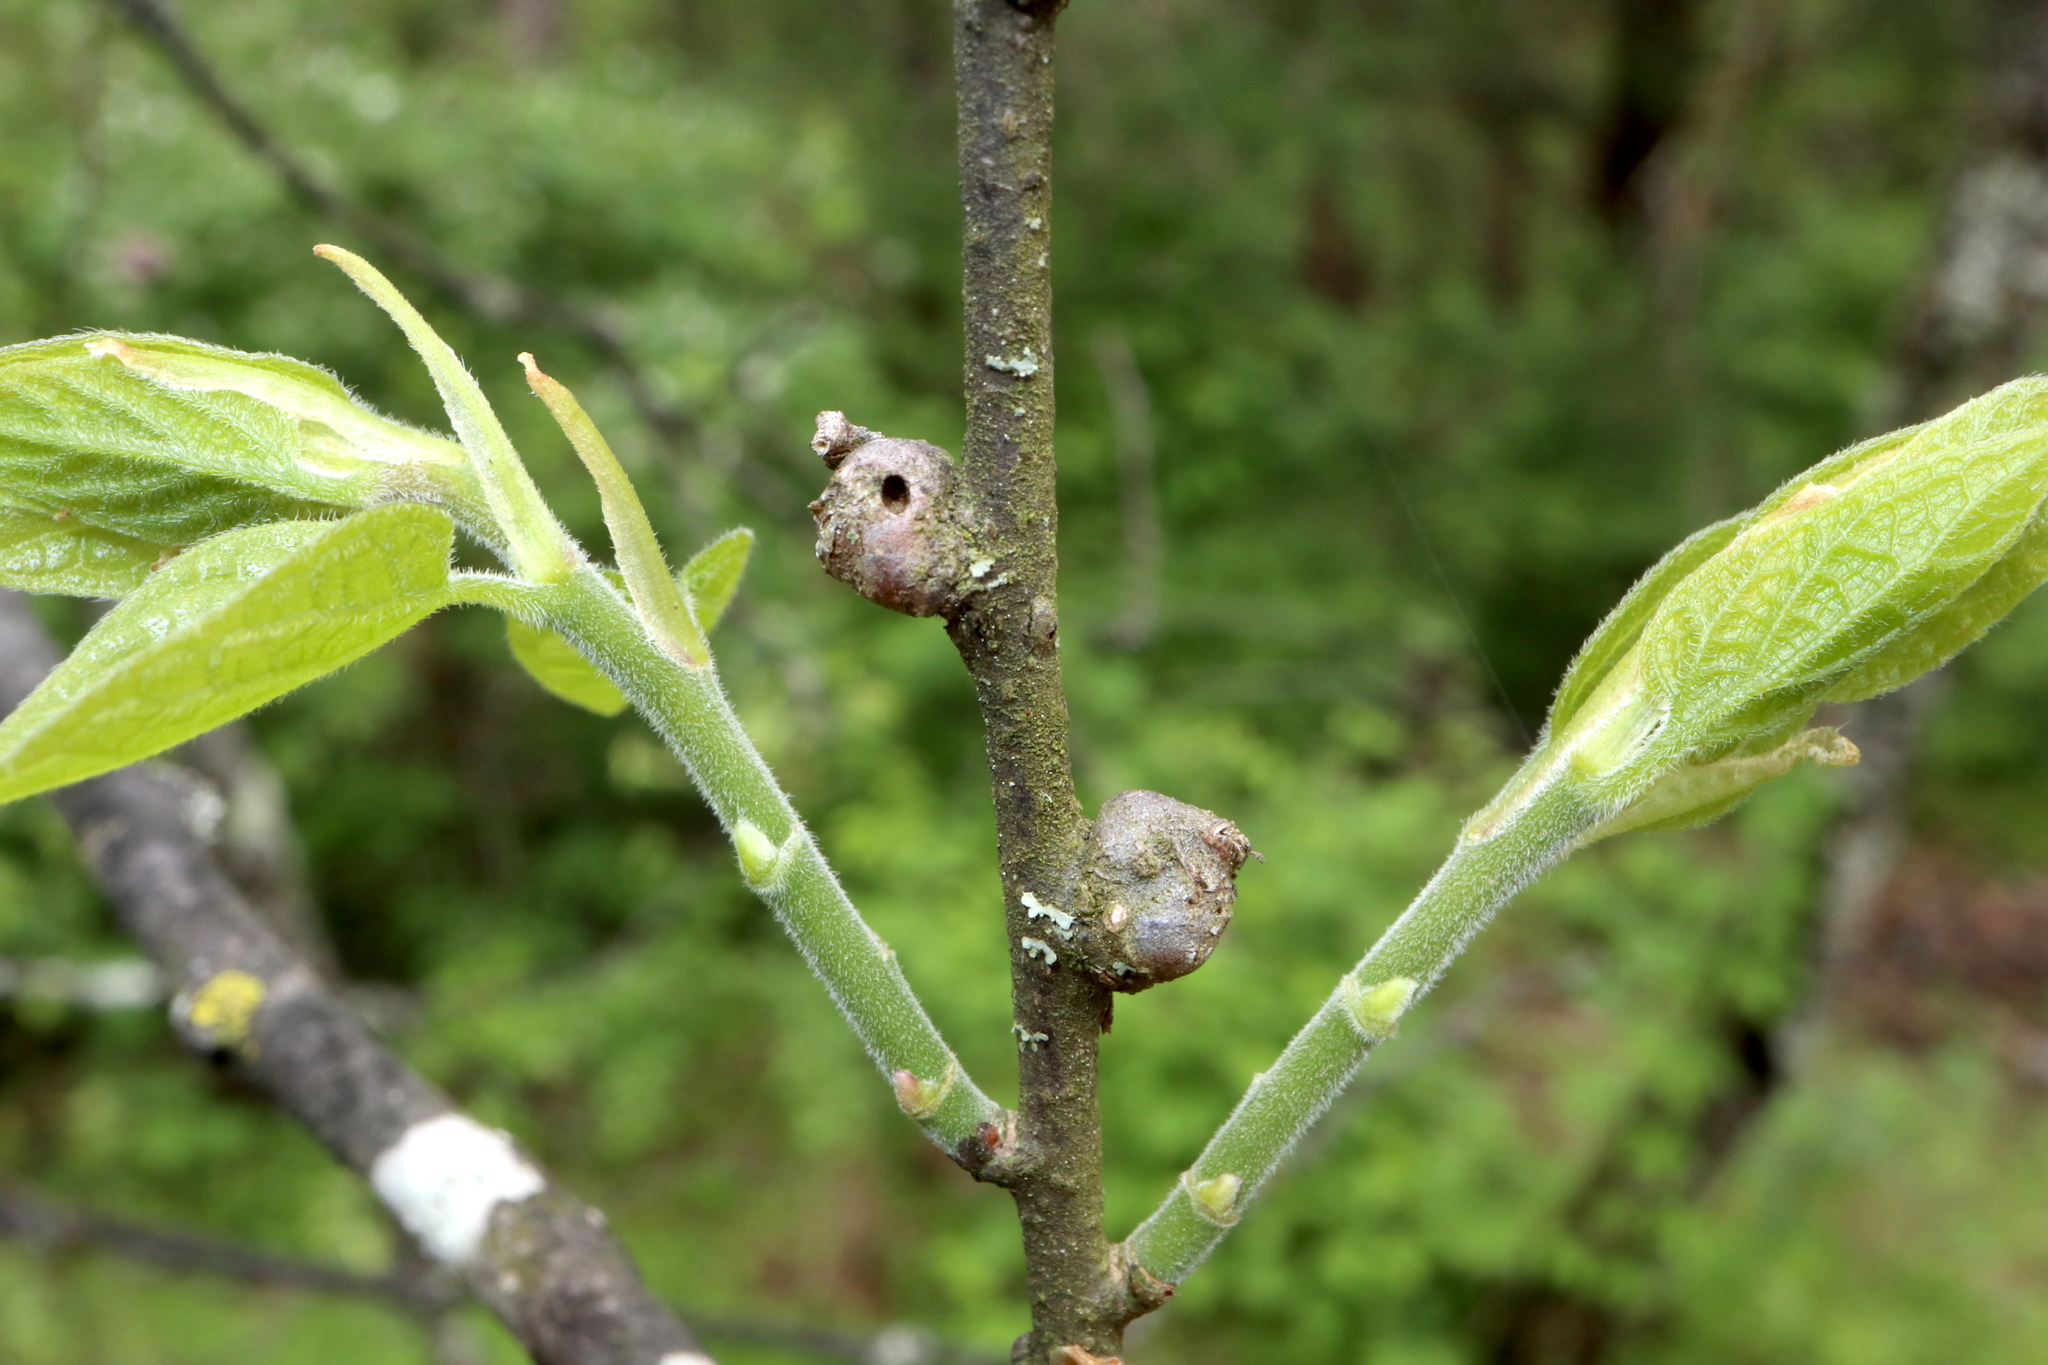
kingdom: Animalia
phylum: Arthropoda
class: Insecta
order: Hemiptera
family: Aphalaridae
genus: Pachypsylla
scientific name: Pachypsylla celtidisgemma
